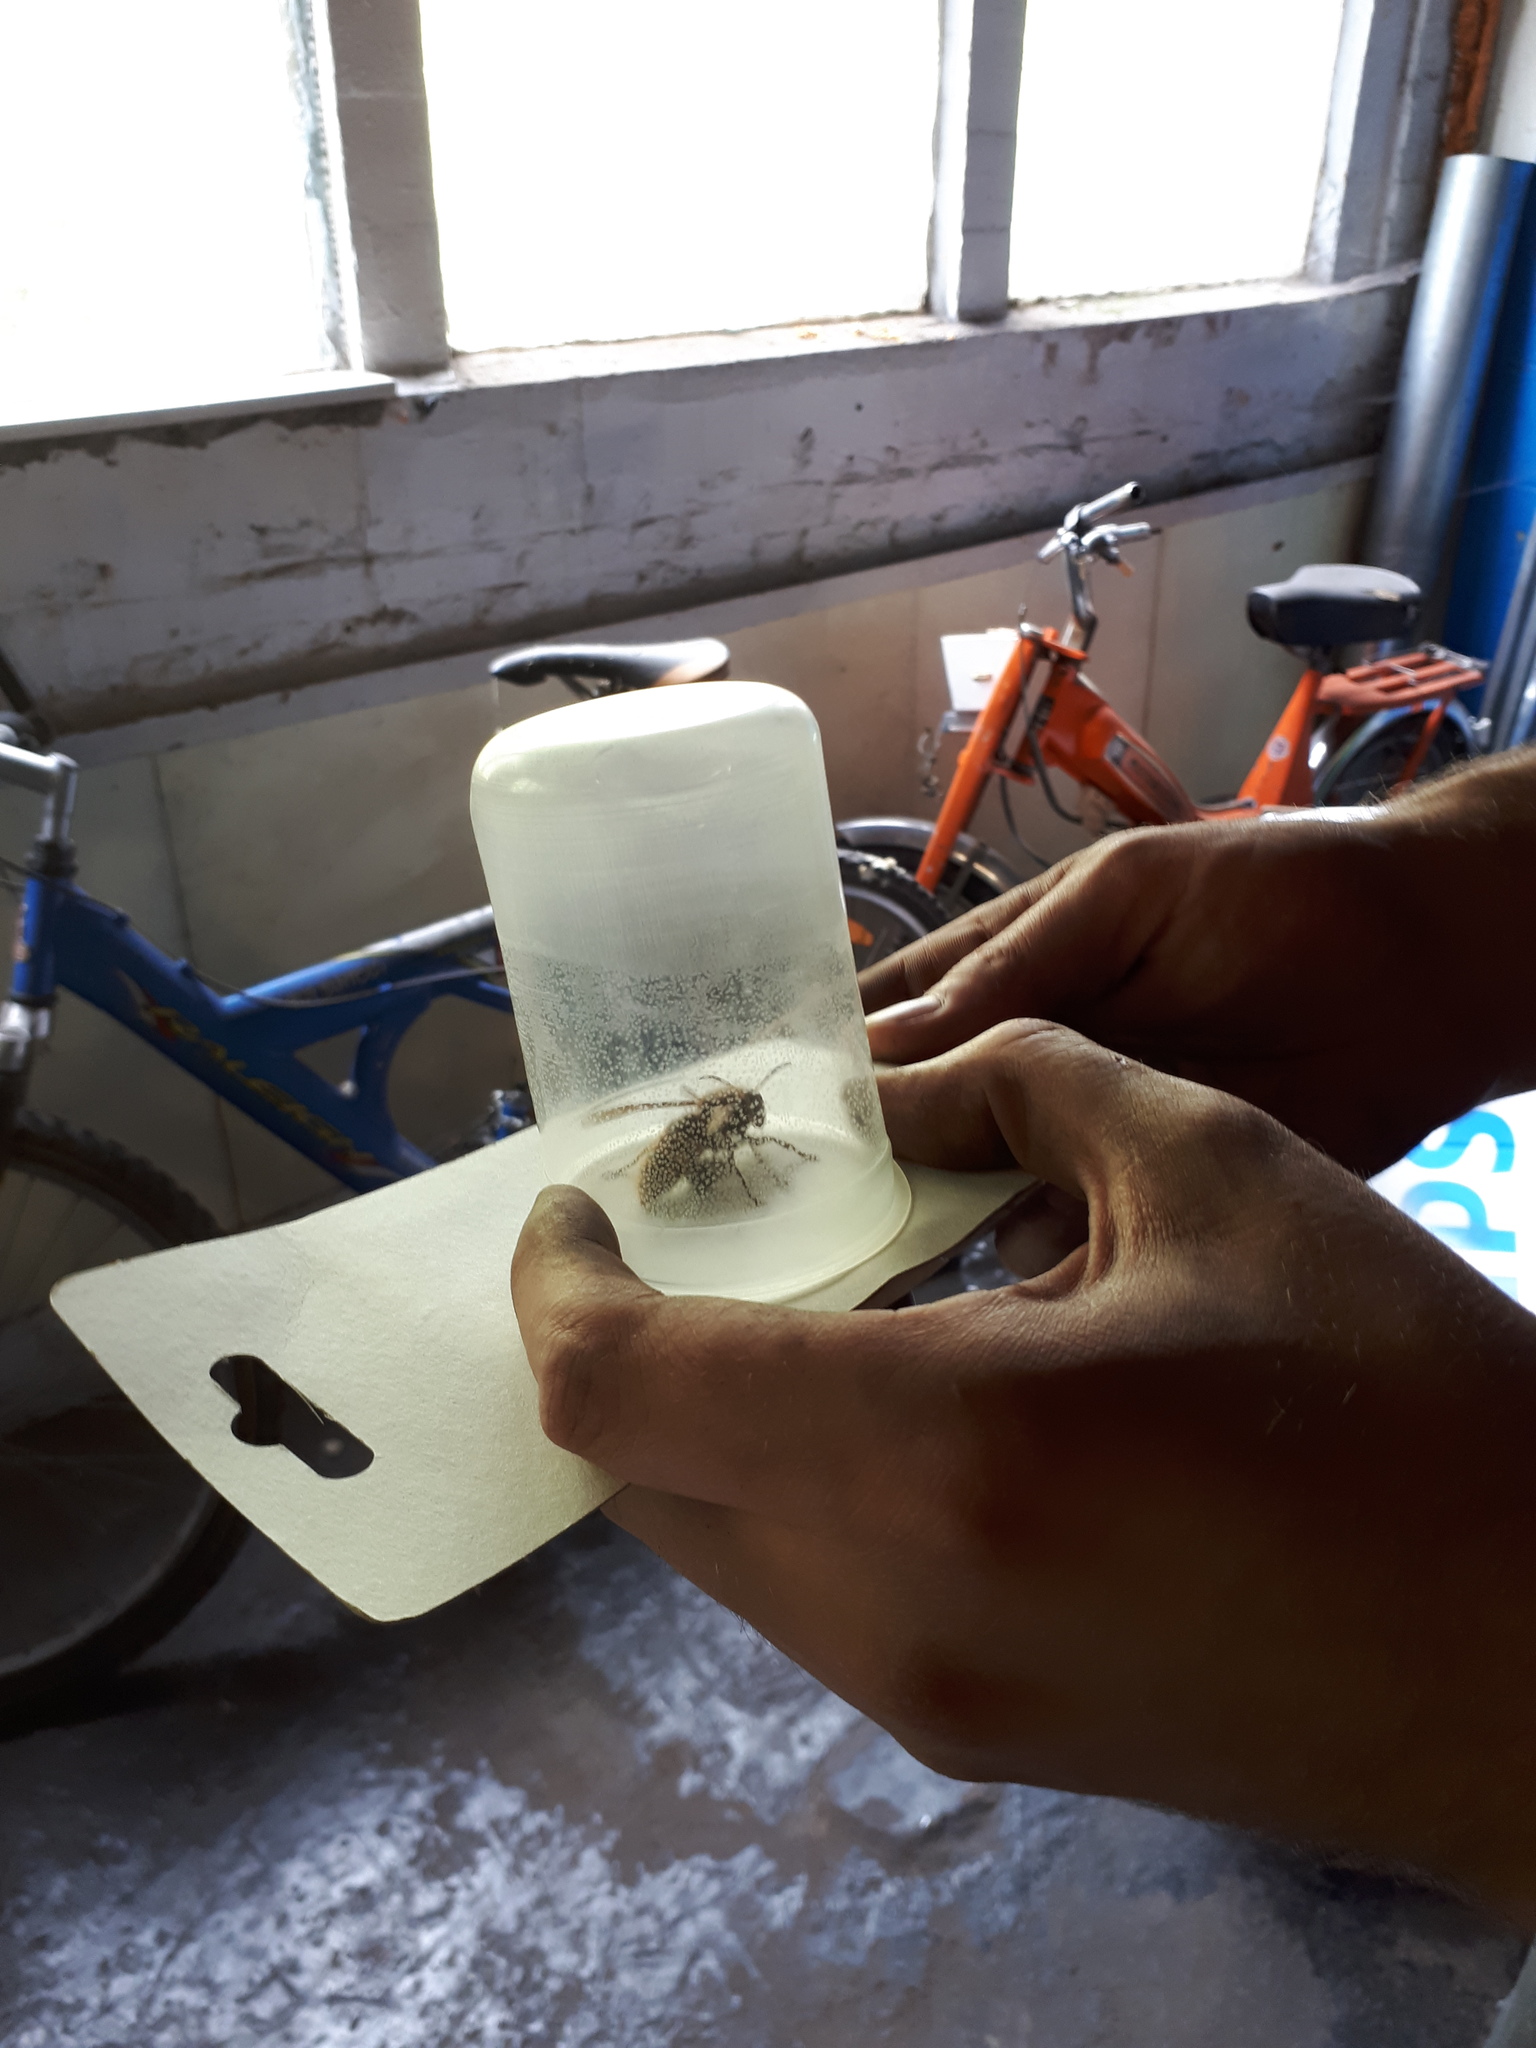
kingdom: Animalia
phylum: Arthropoda
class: Insecta
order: Hymenoptera
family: Vespidae
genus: Vespa
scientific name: Vespa crabro
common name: Hornet
